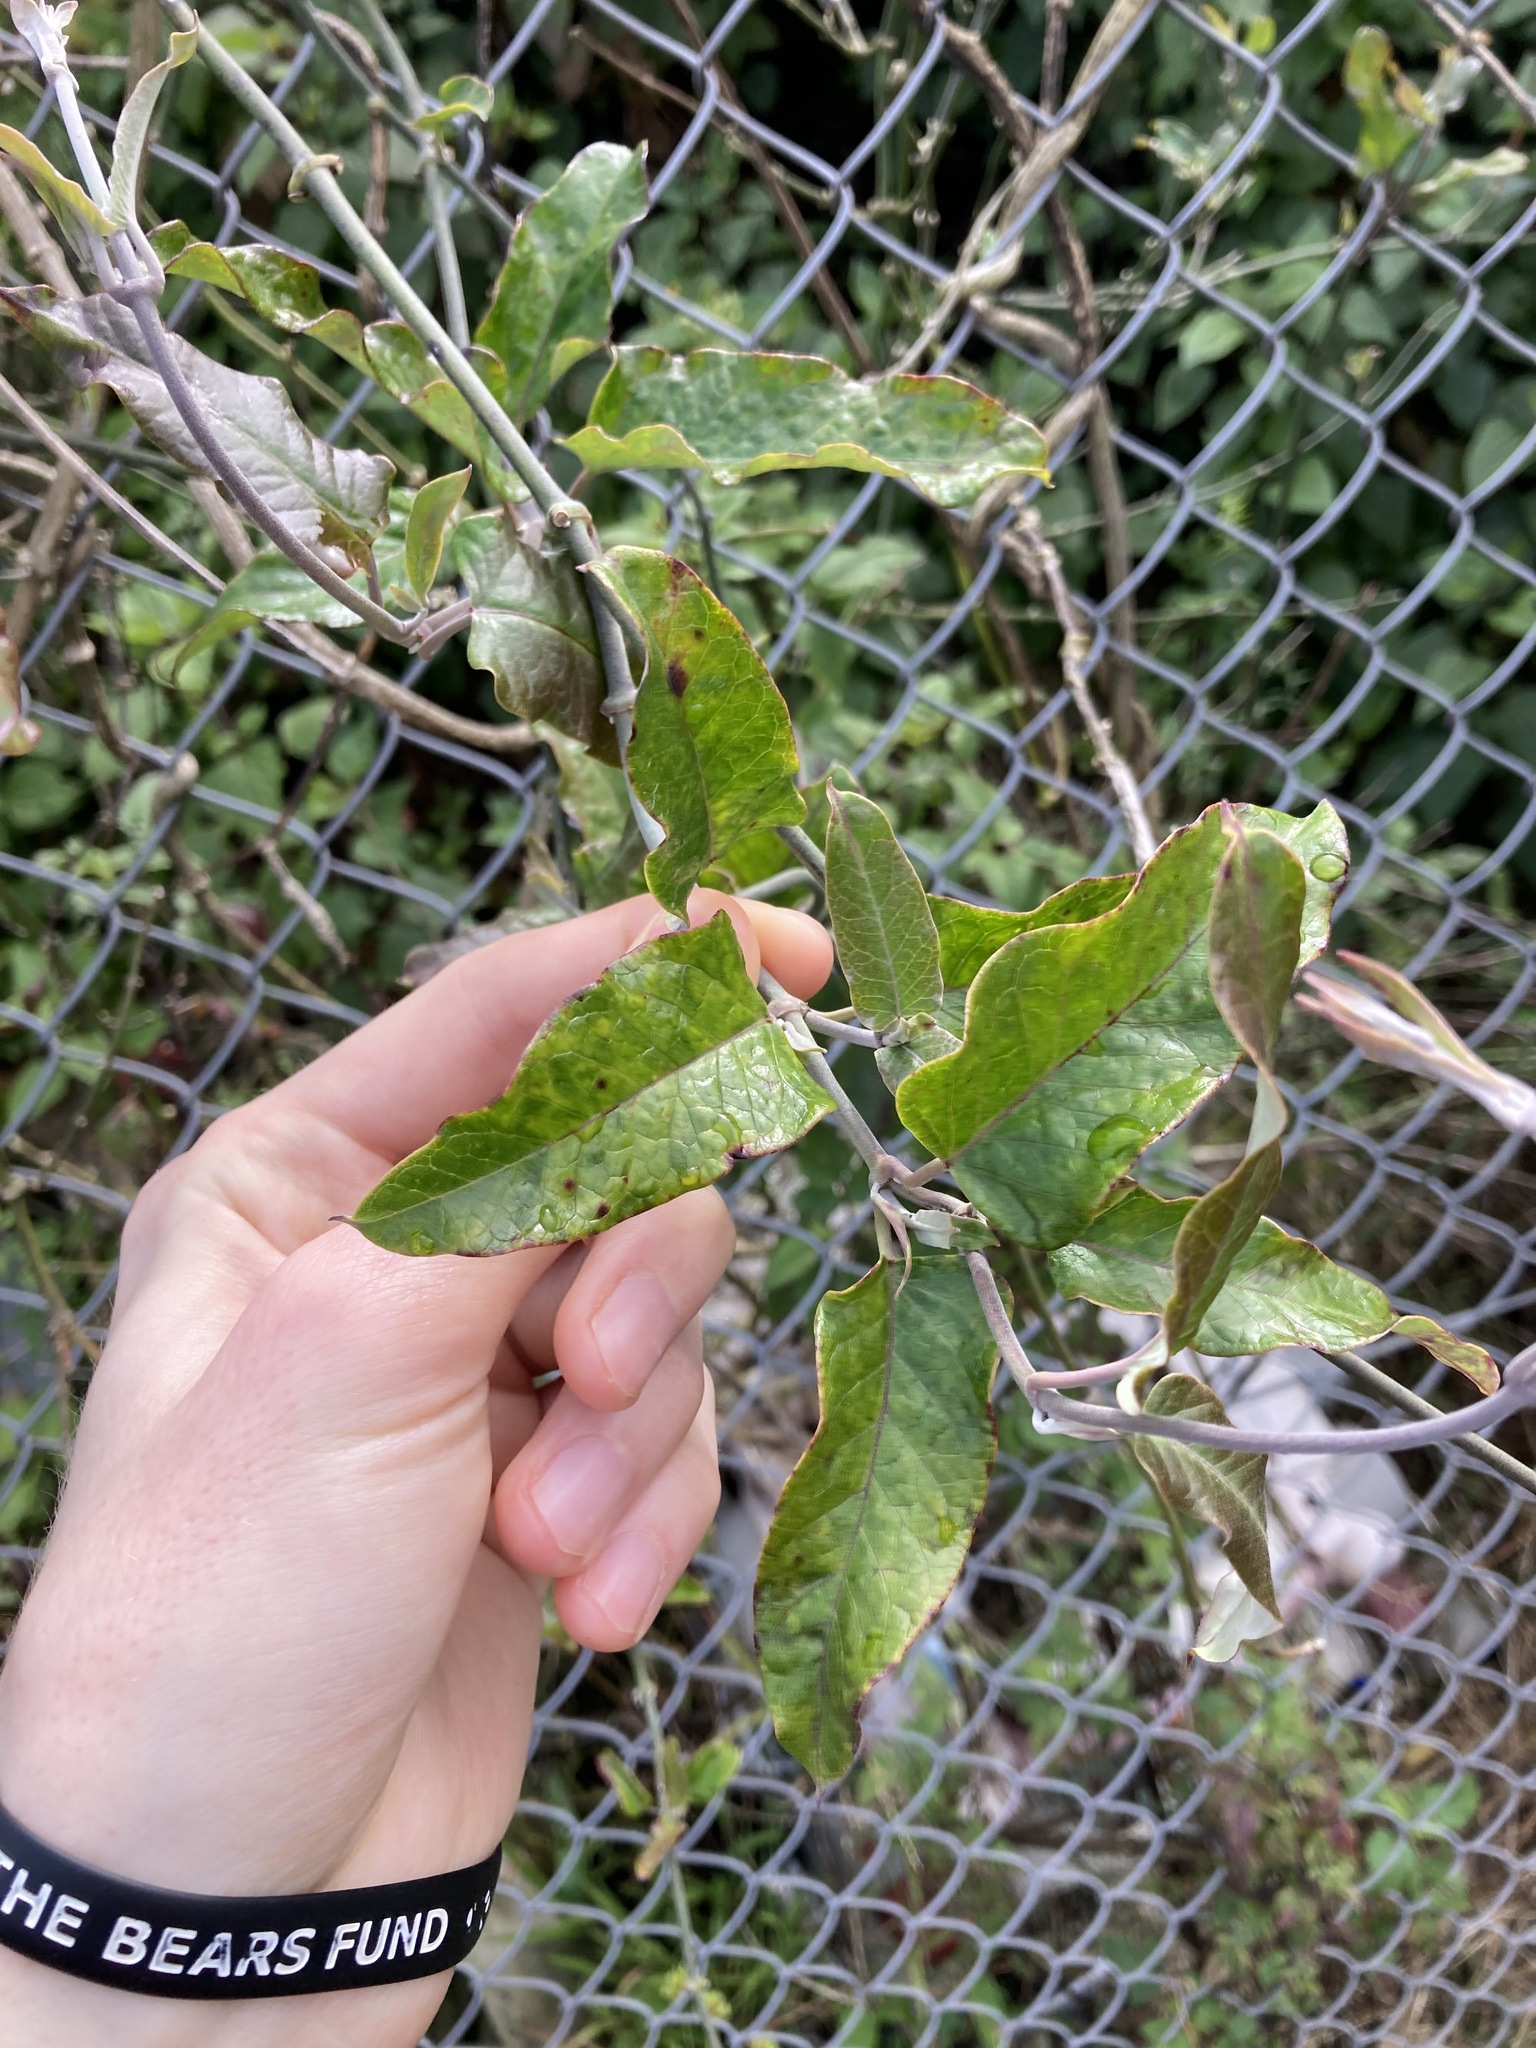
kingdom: Plantae
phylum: Tracheophyta
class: Magnoliopsida
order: Gentianales
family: Apocynaceae
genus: Araujia
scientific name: Araujia sericifera
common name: White bladderflower
